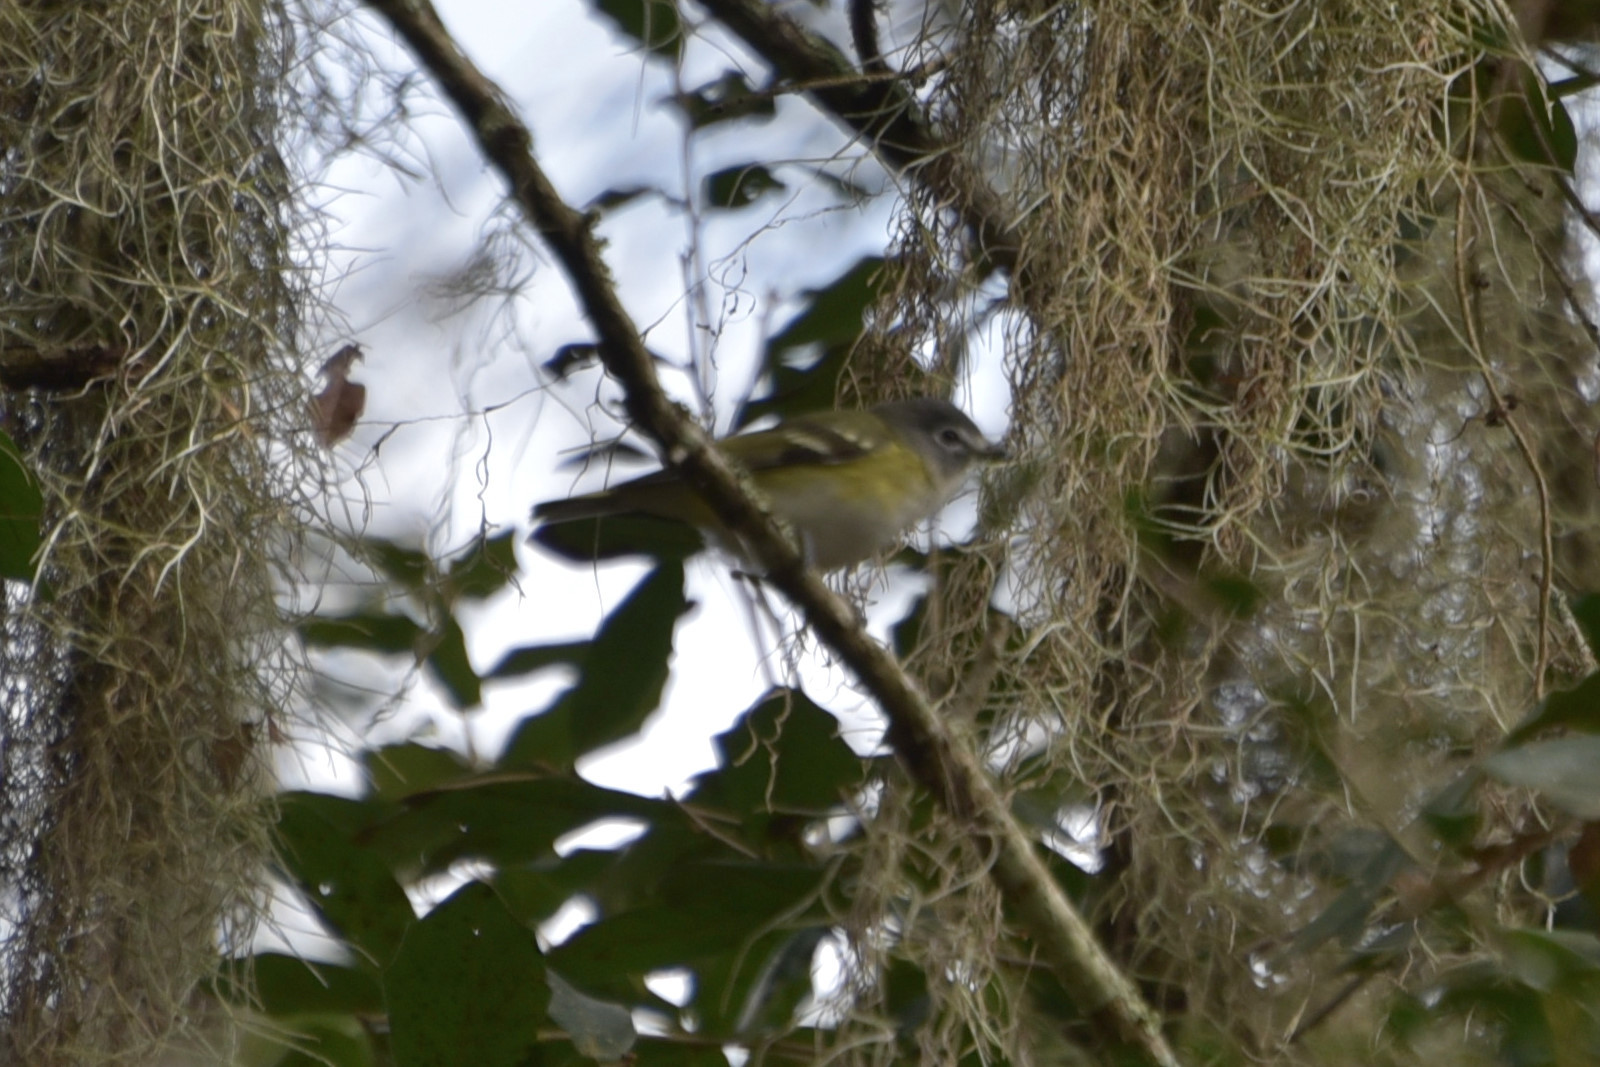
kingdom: Animalia
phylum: Chordata
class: Aves
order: Passeriformes
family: Vireonidae
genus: Vireo
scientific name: Vireo solitarius
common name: Blue-headed vireo
